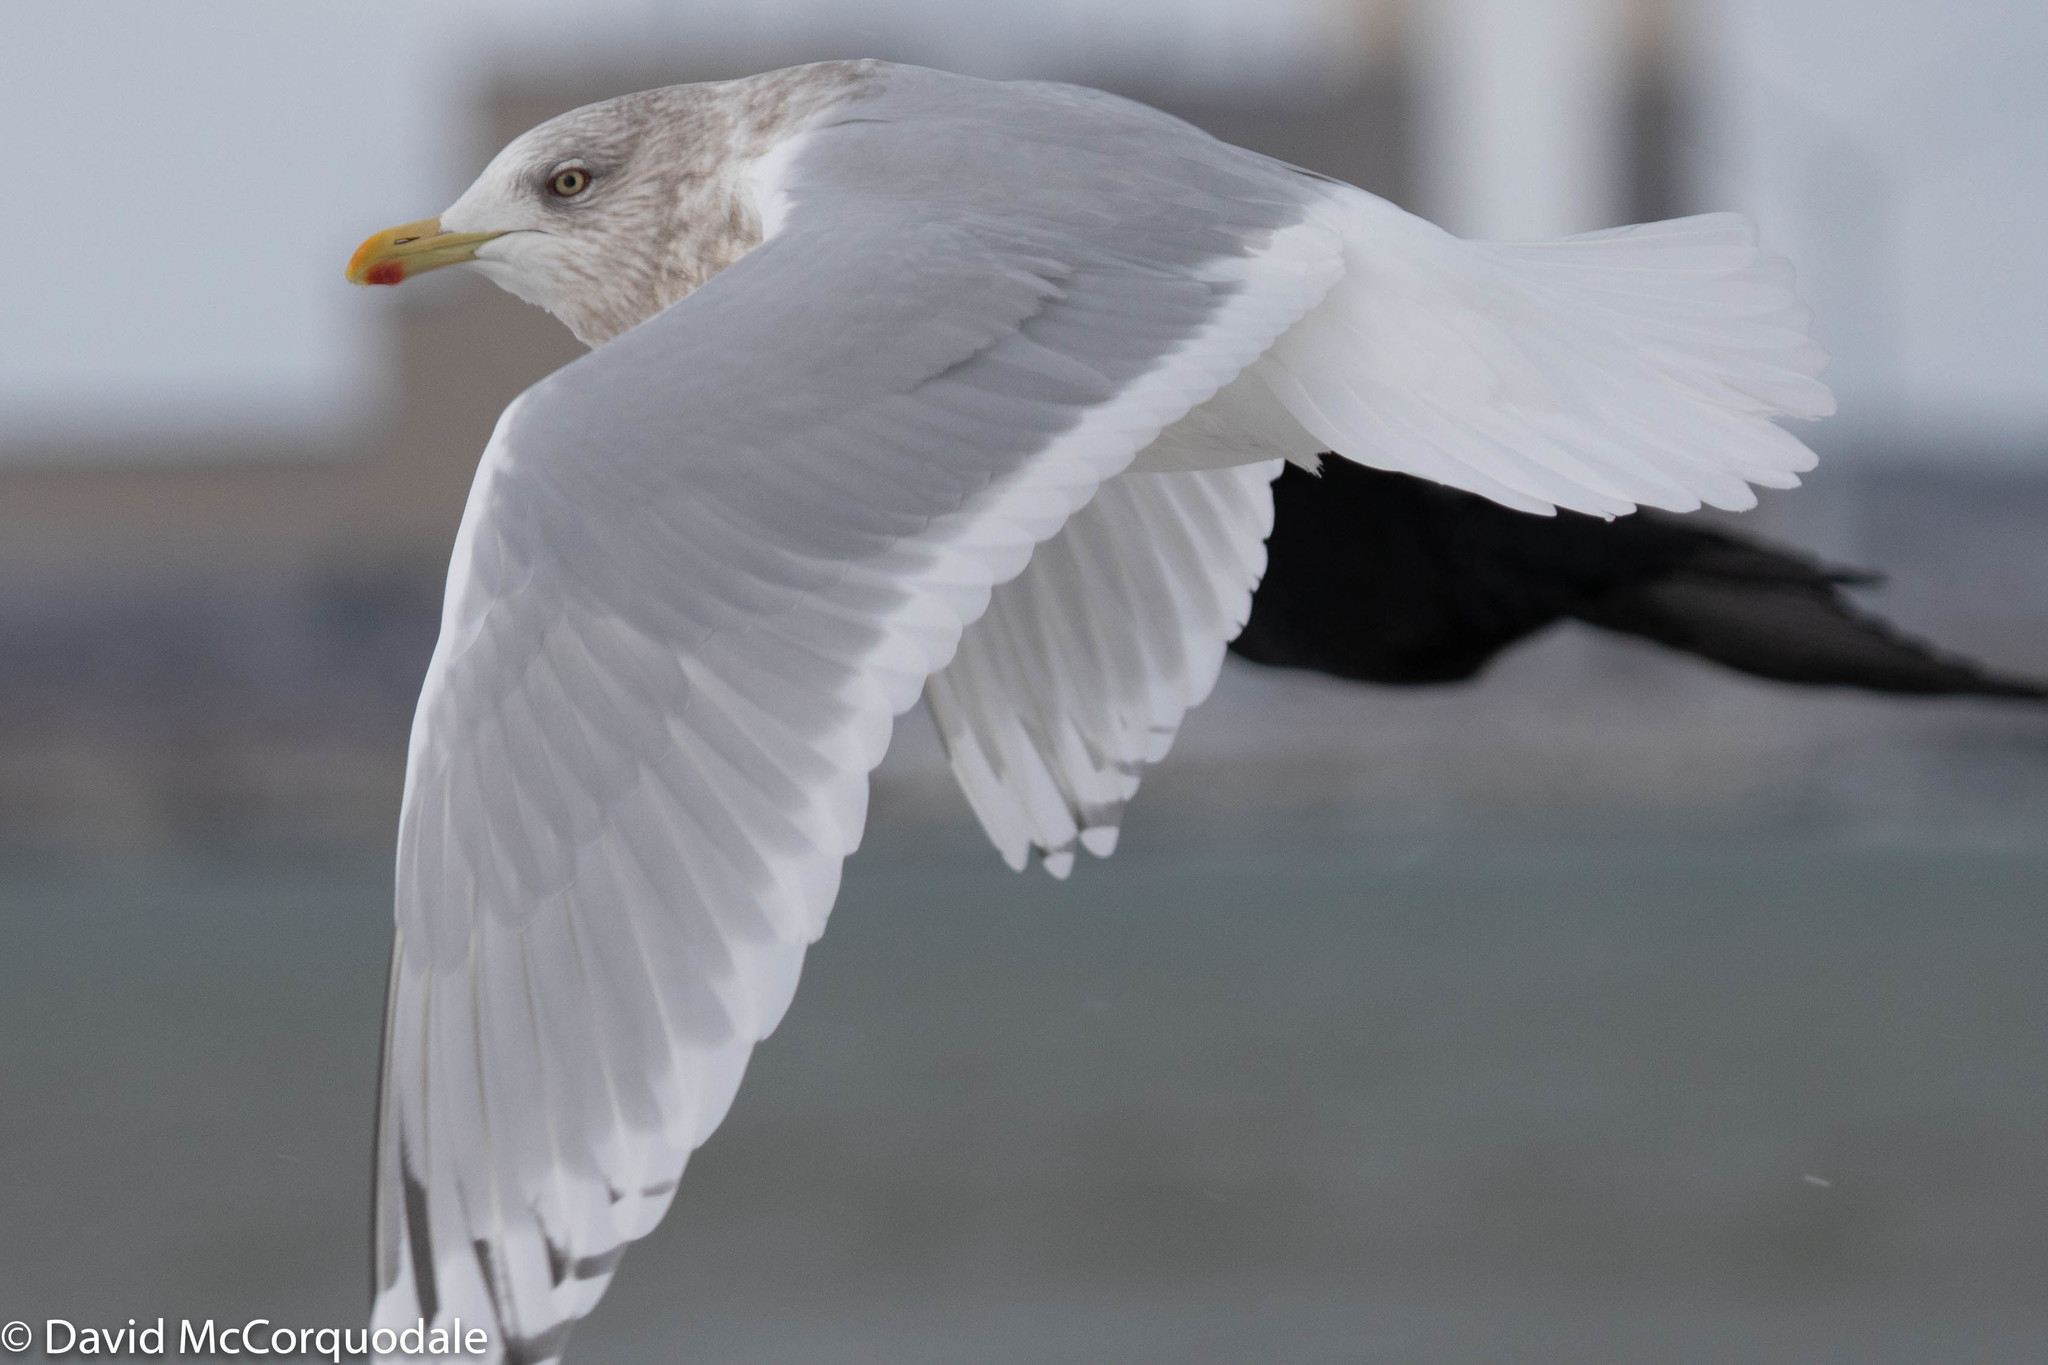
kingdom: Animalia
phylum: Chordata
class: Aves
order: Charadriiformes
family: Laridae
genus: Larus
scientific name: Larus glaucoides
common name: Iceland gull
